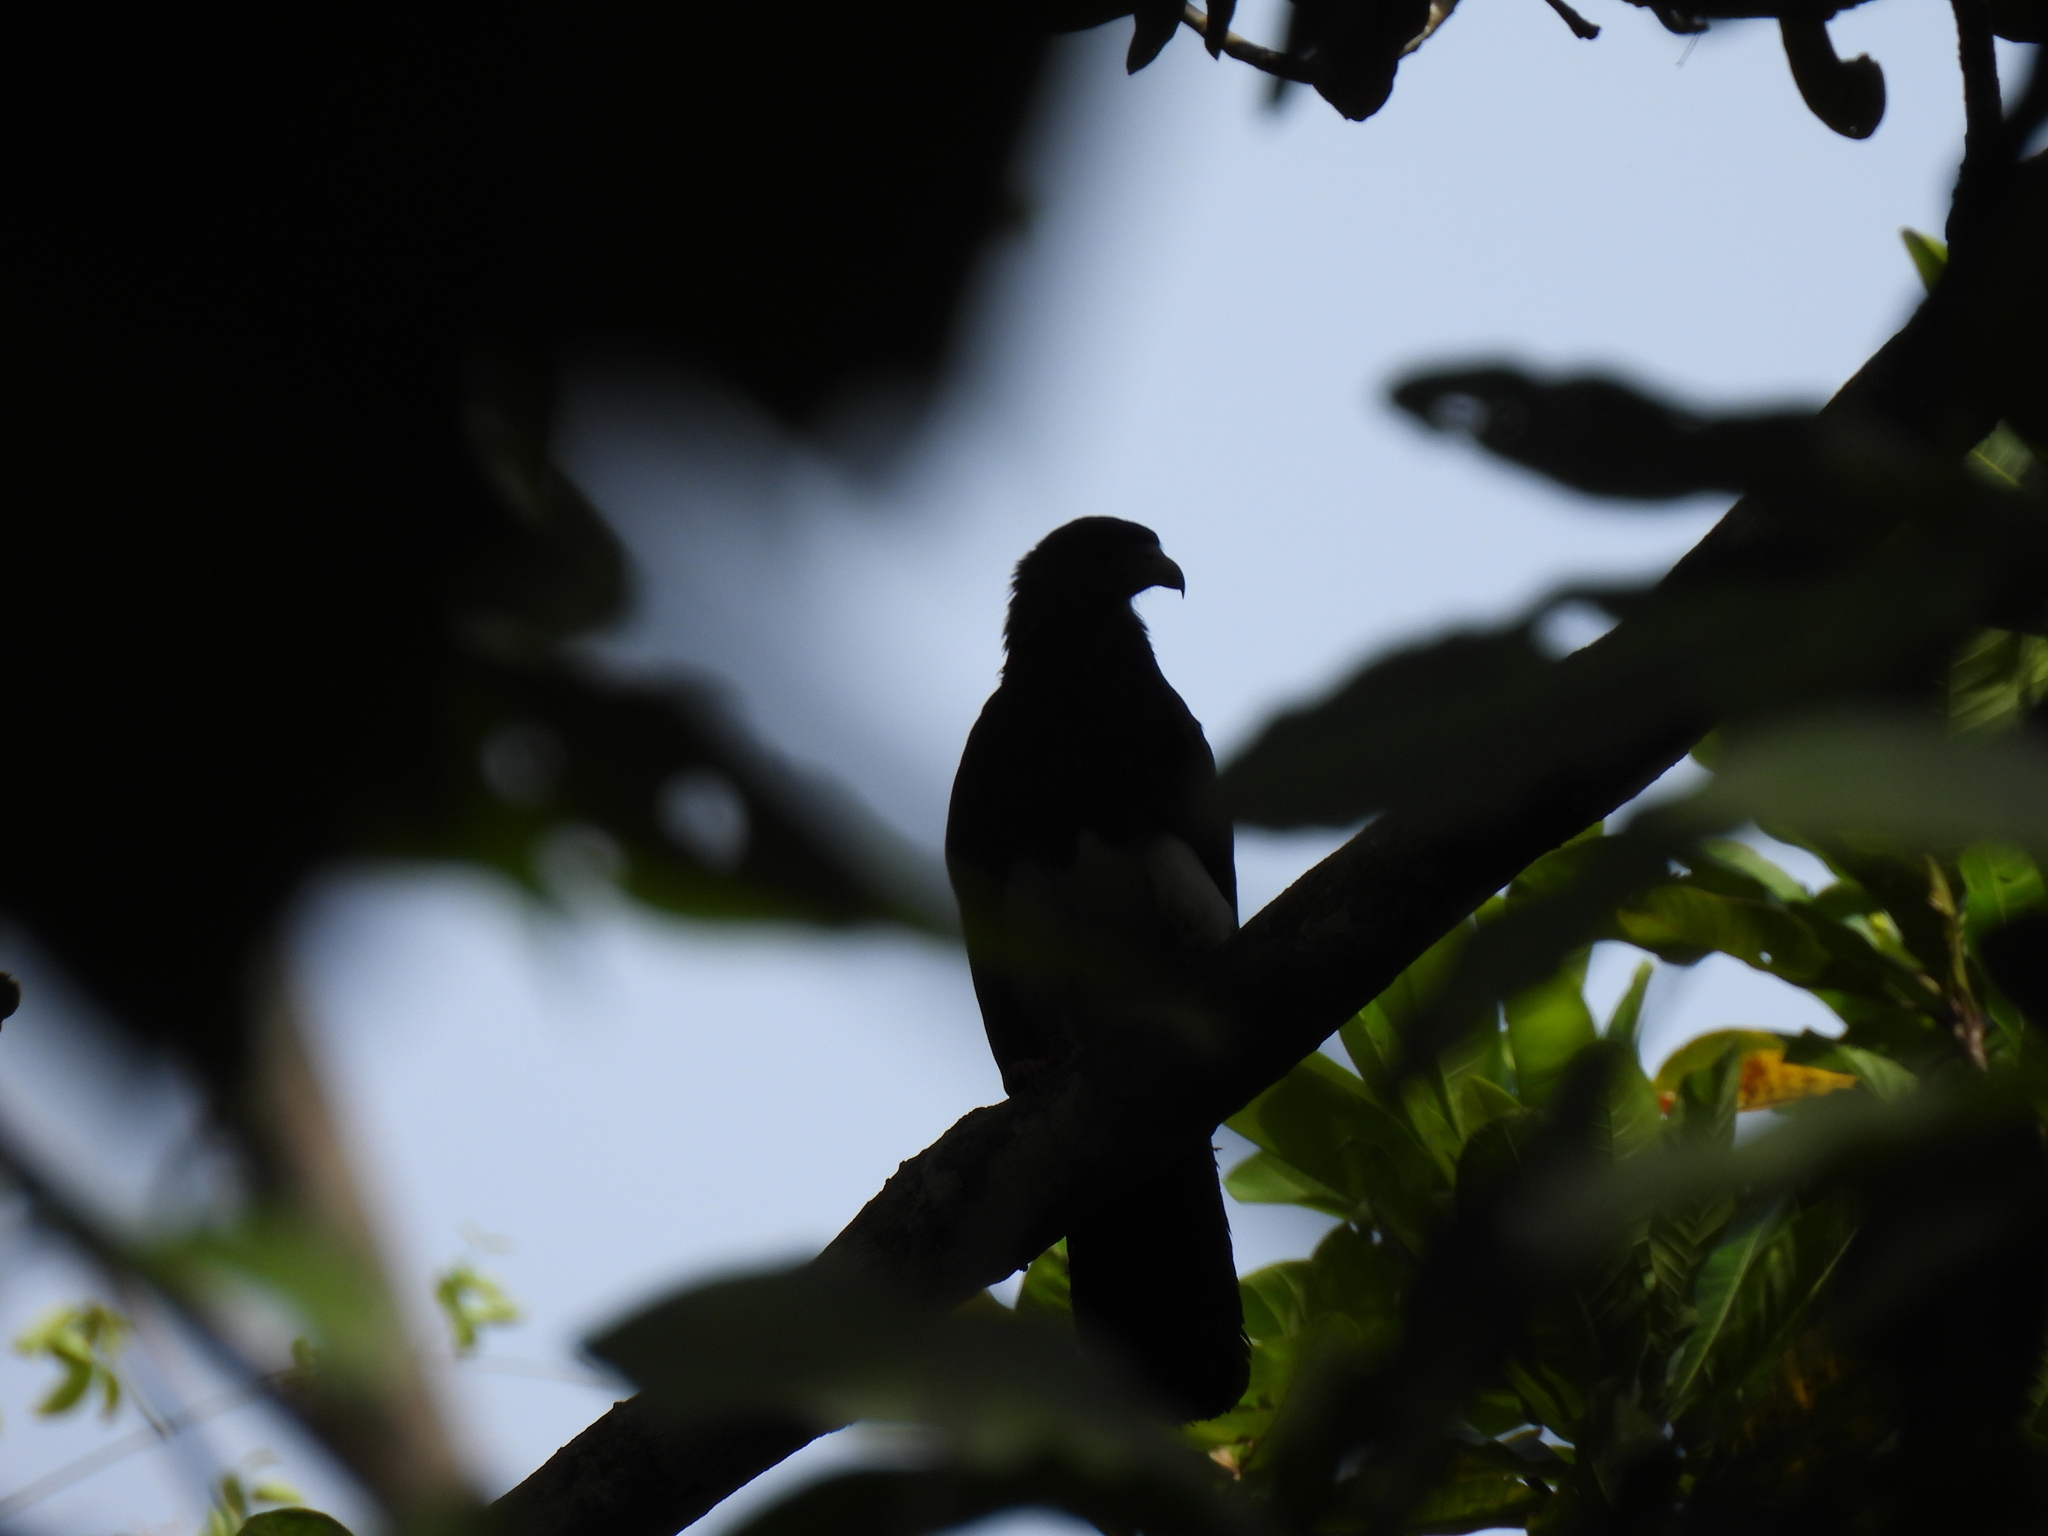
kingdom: Animalia
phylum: Chordata
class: Aves
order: Falconiformes
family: Falconidae
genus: Ibycter
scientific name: Ibycter americanus
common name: Red-throated caracara
